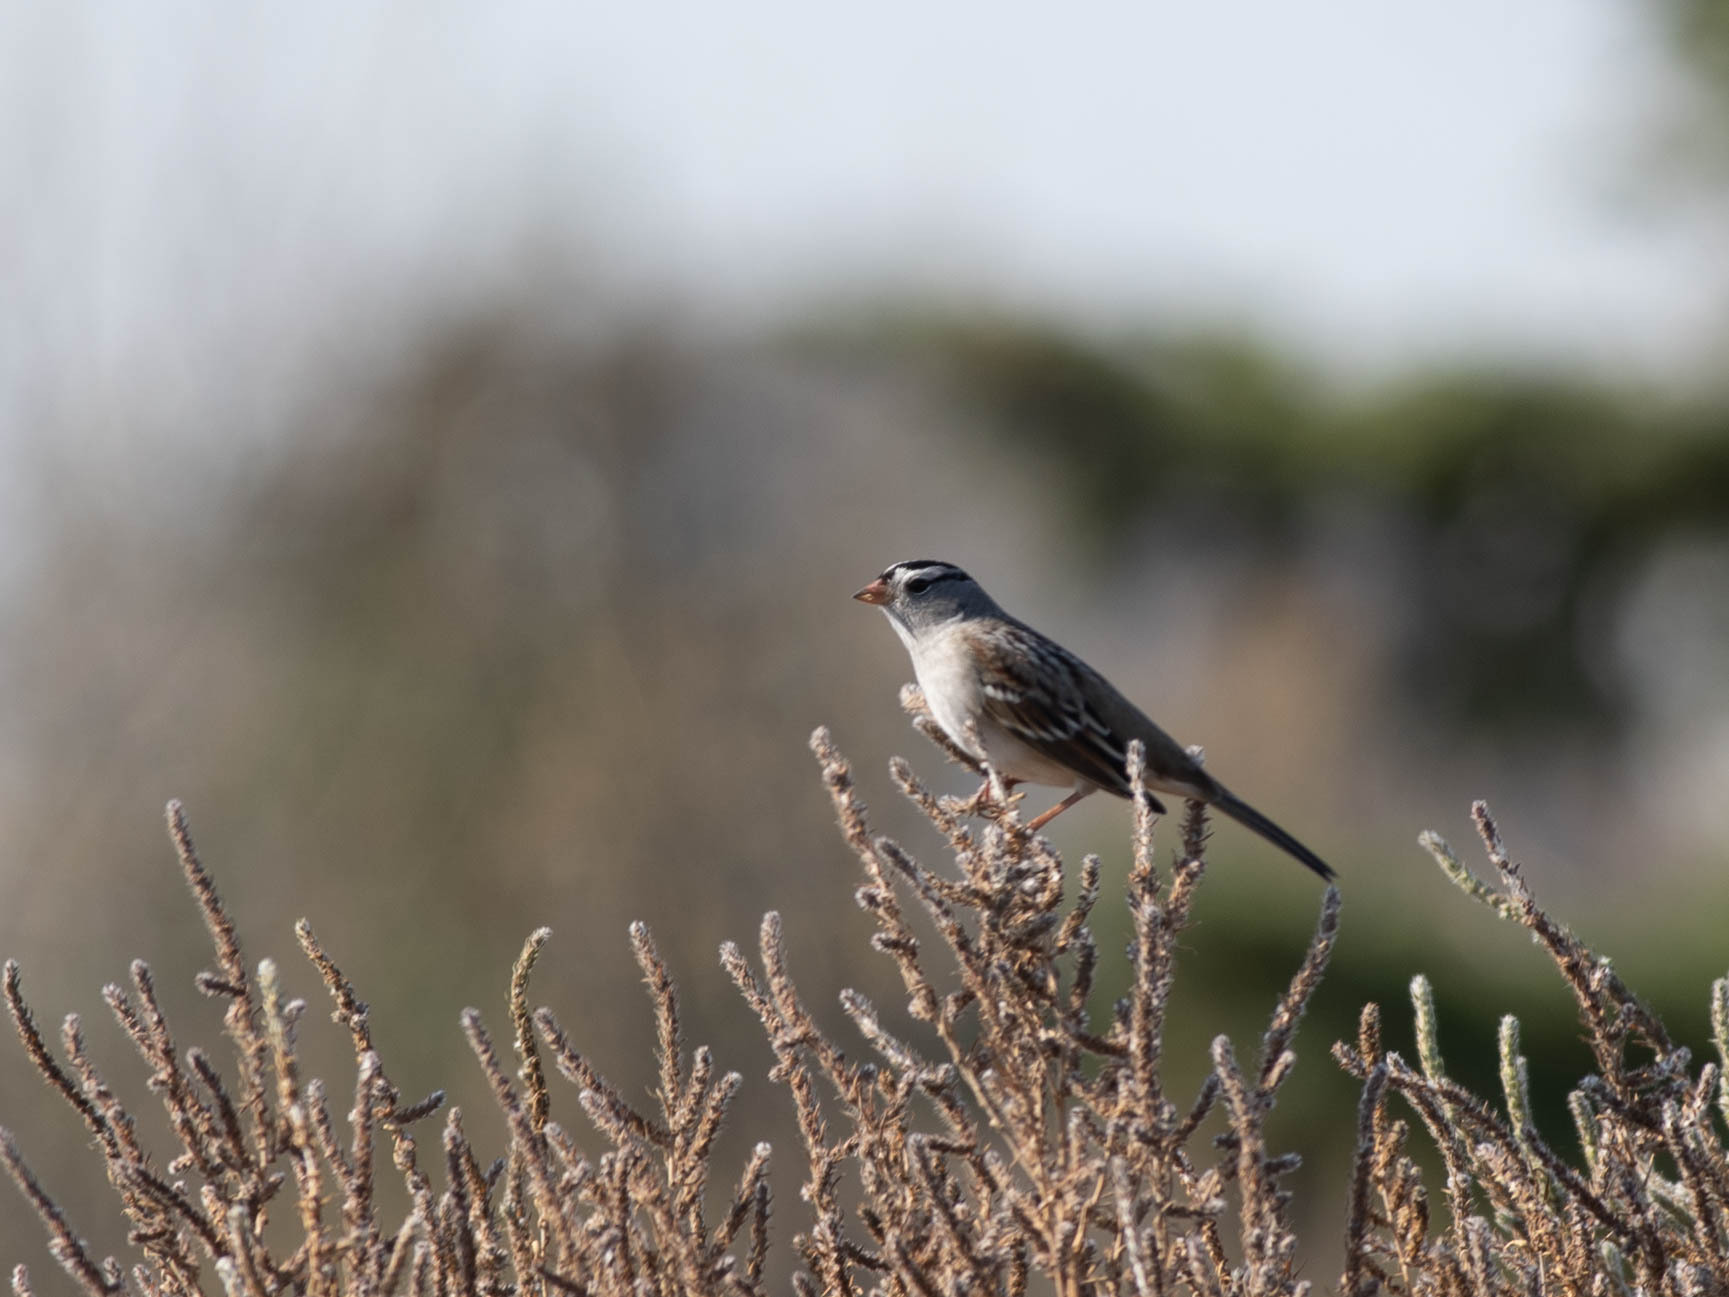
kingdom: Animalia
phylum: Chordata
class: Aves
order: Passeriformes
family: Passerellidae
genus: Zonotrichia
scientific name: Zonotrichia leucophrys
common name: White-crowned sparrow
